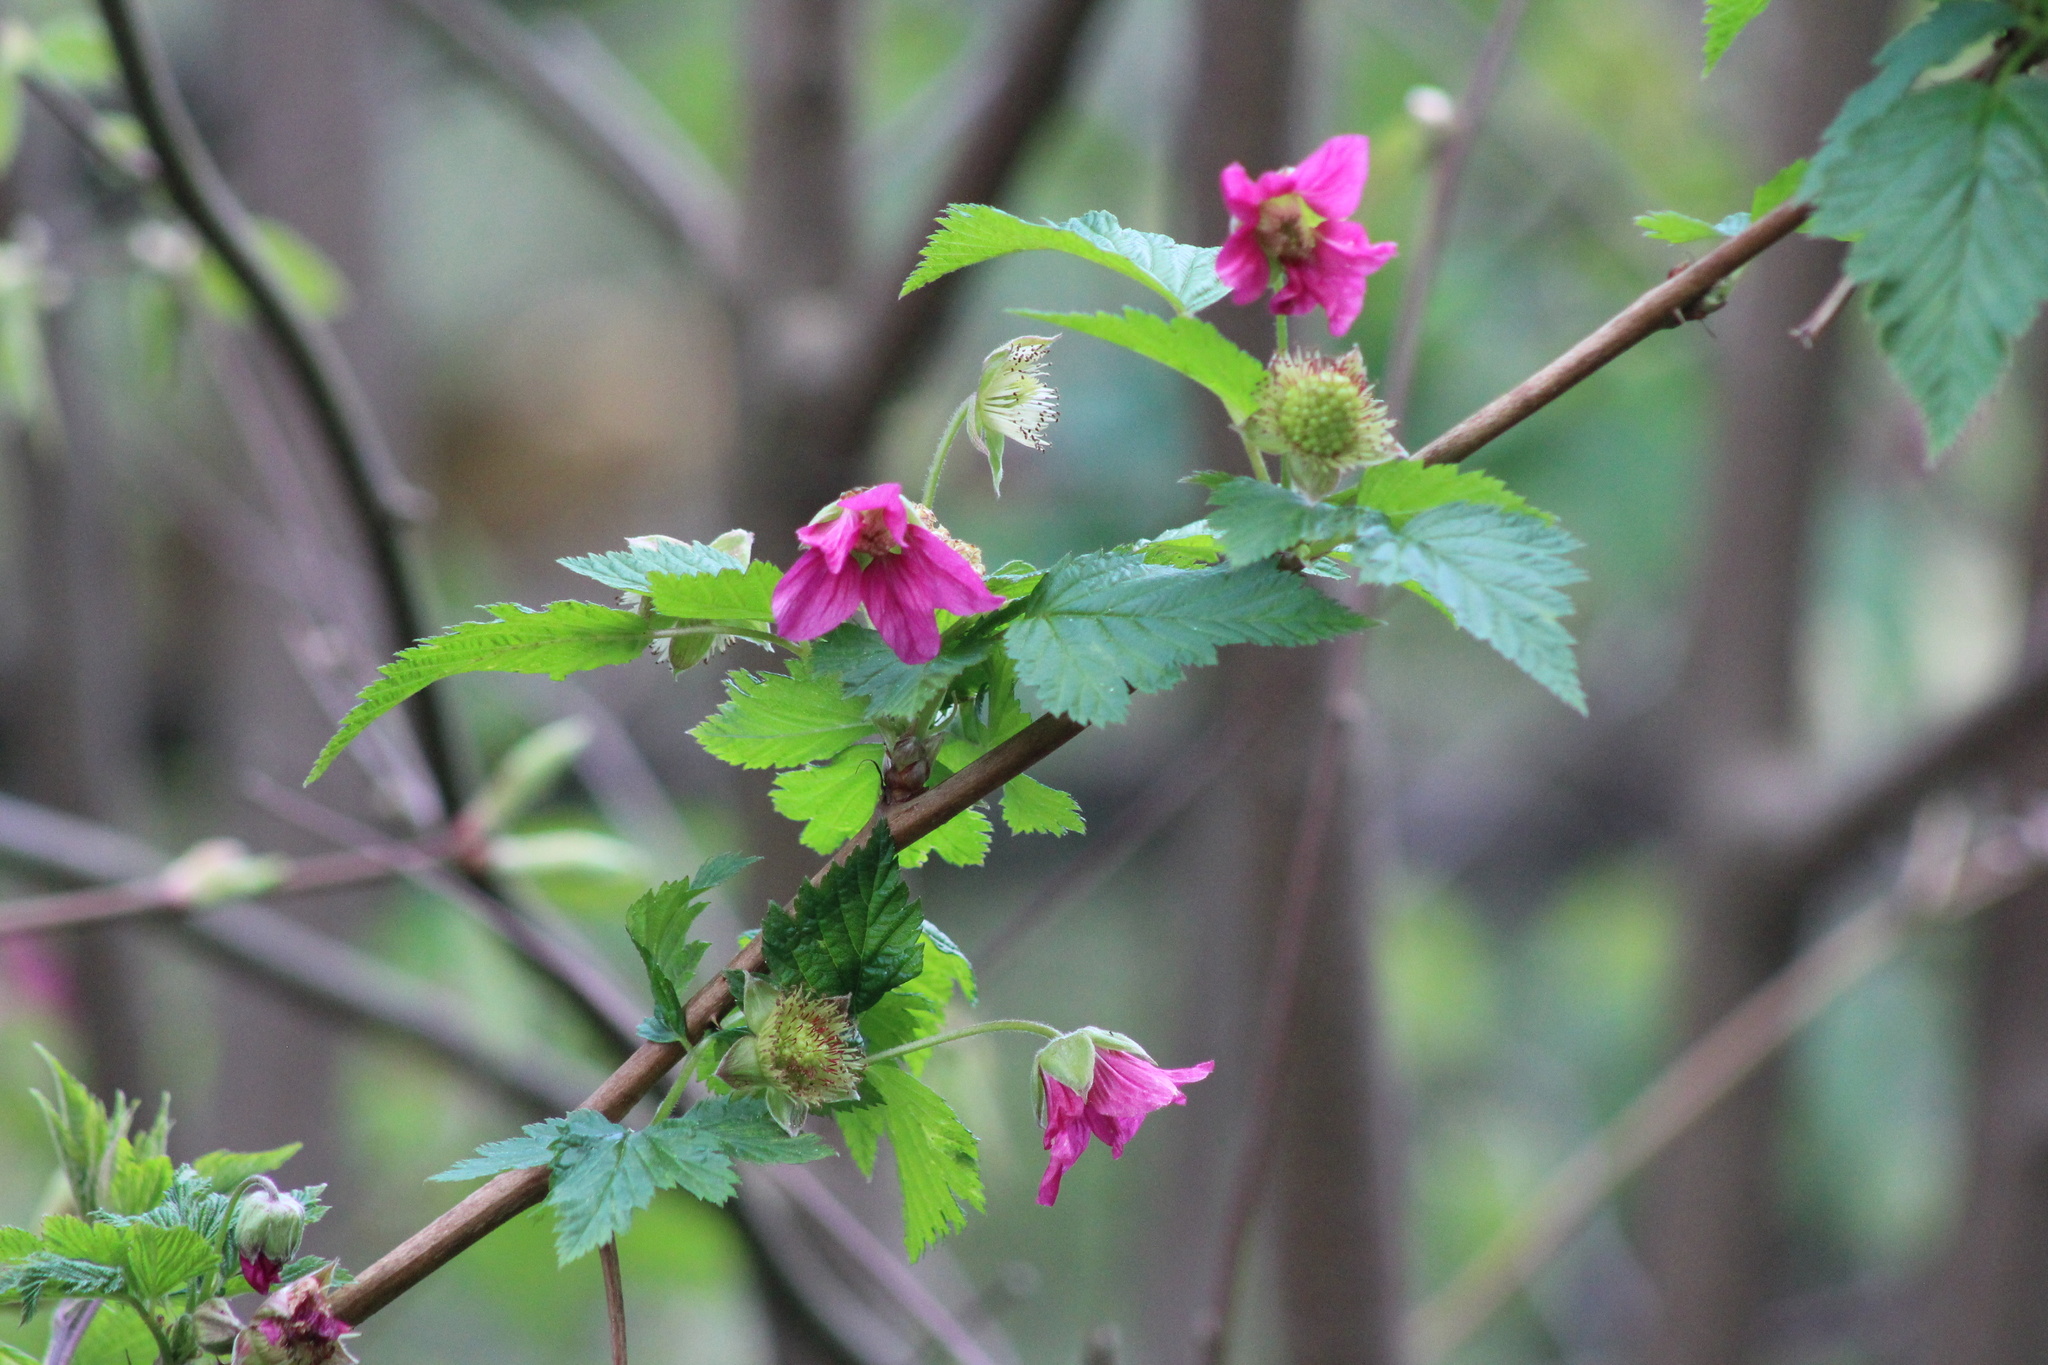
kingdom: Plantae
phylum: Tracheophyta
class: Magnoliopsida
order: Rosales
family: Rosaceae
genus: Rubus
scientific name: Rubus spectabilis
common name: Salmonberry
